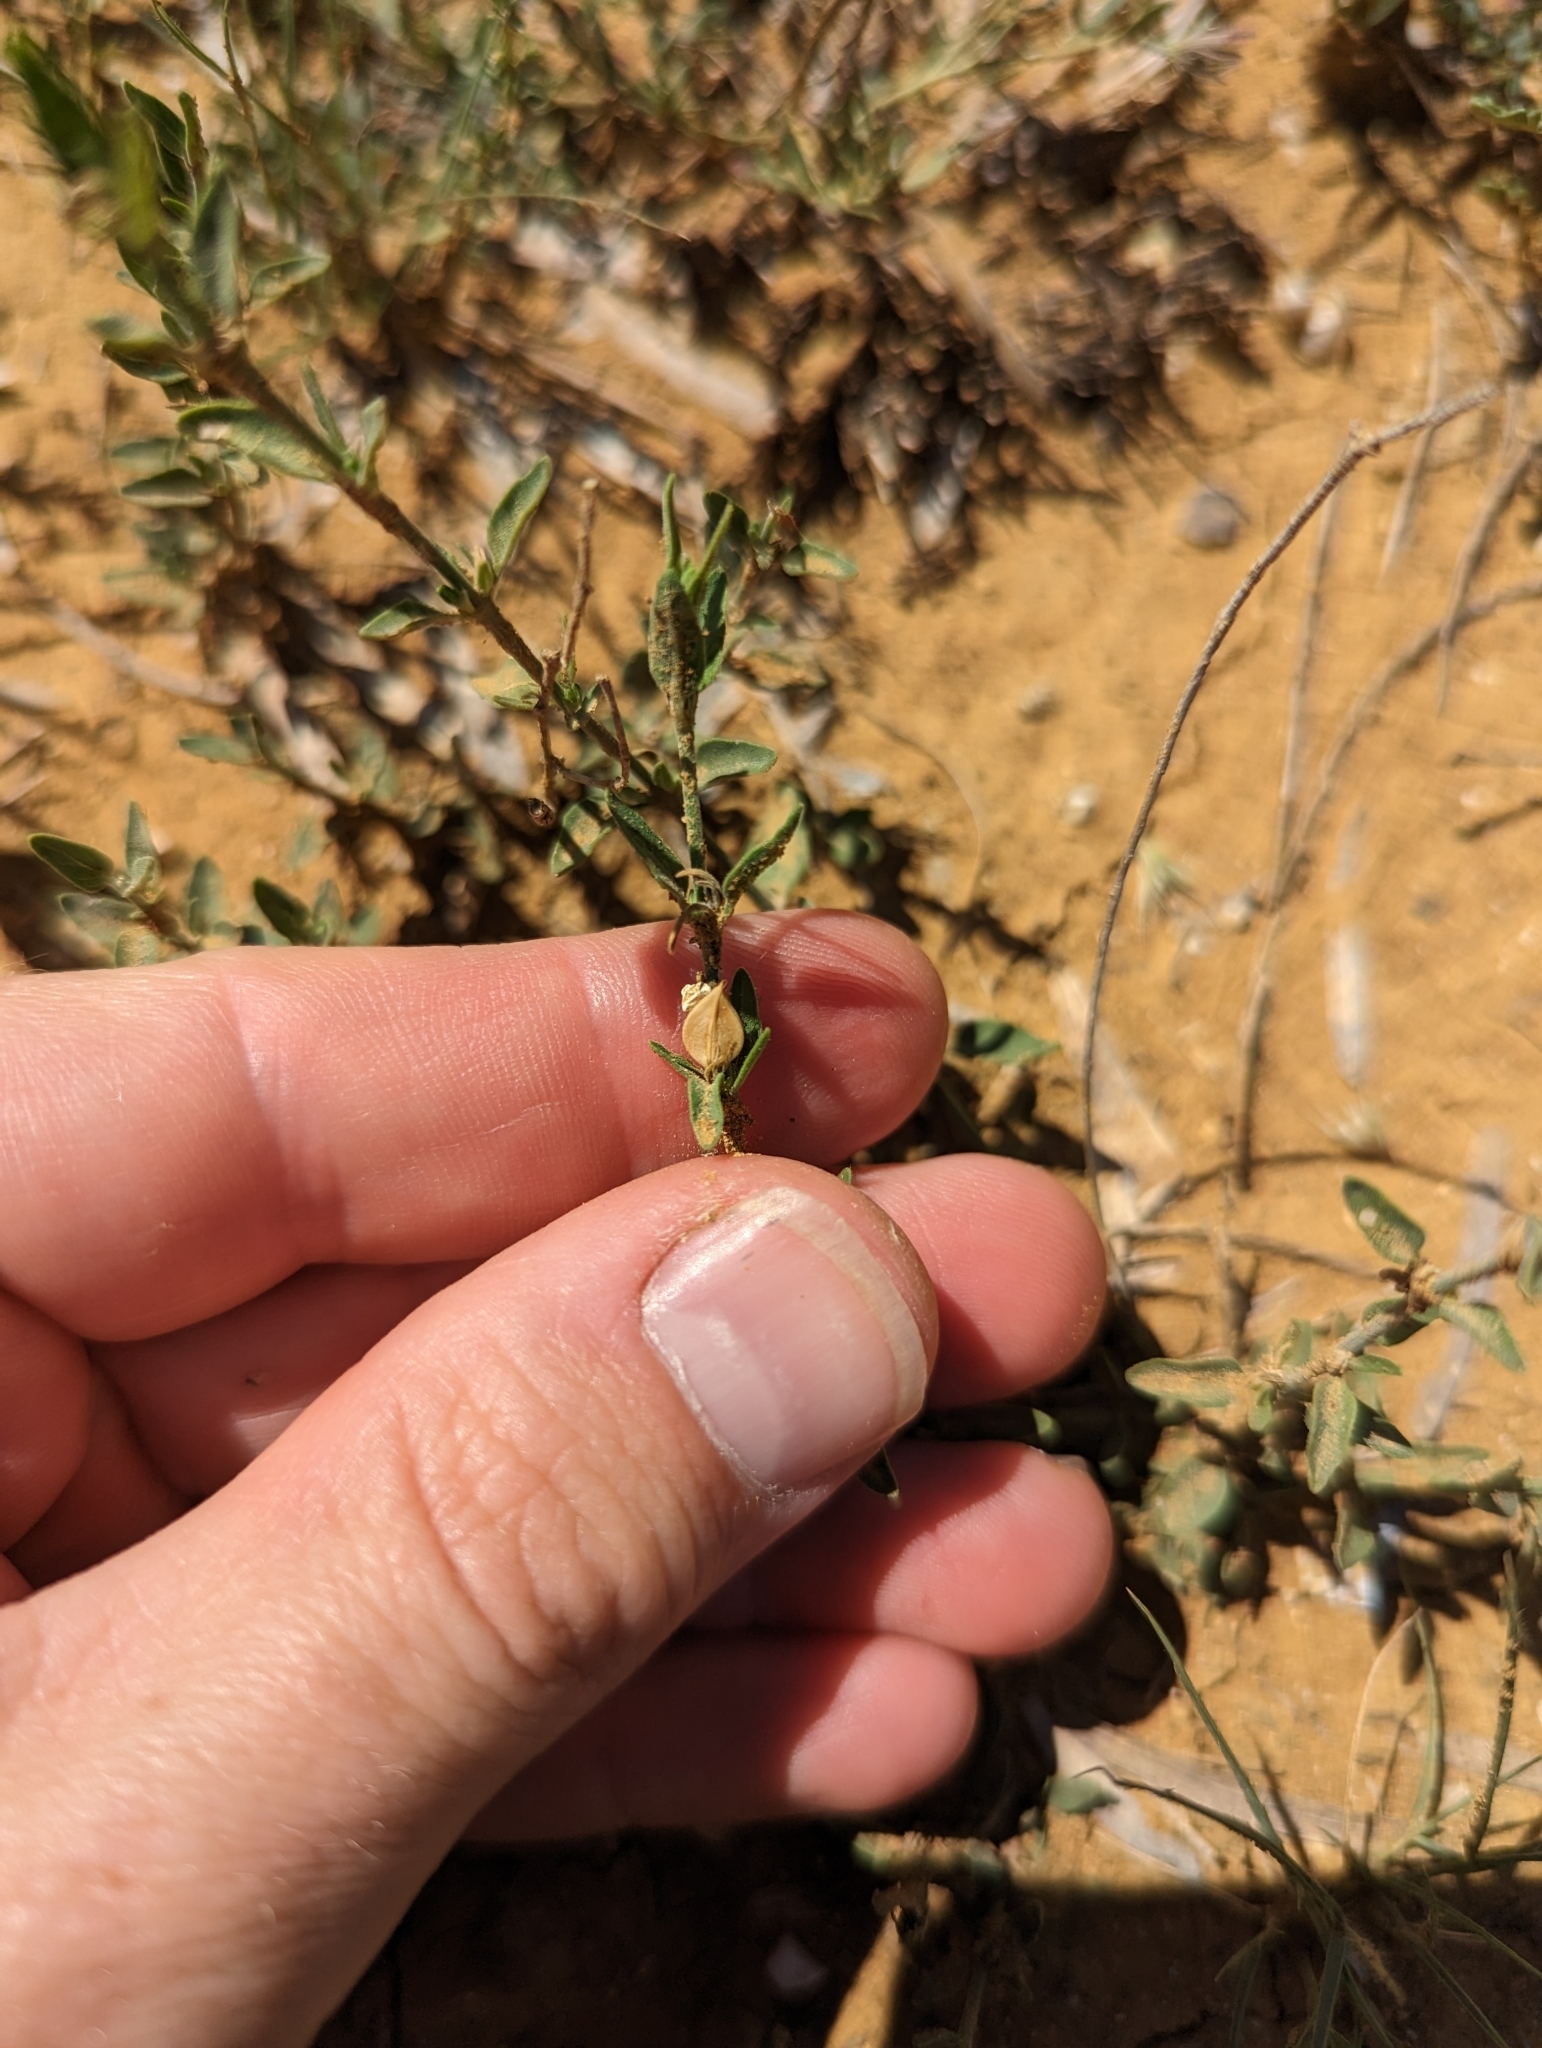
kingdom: Plantae
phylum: Tracheophyta
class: Magnoliopsida
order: Lamiales
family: Acanthaceae
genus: Carlowrightia
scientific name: Carlowrightia texana
